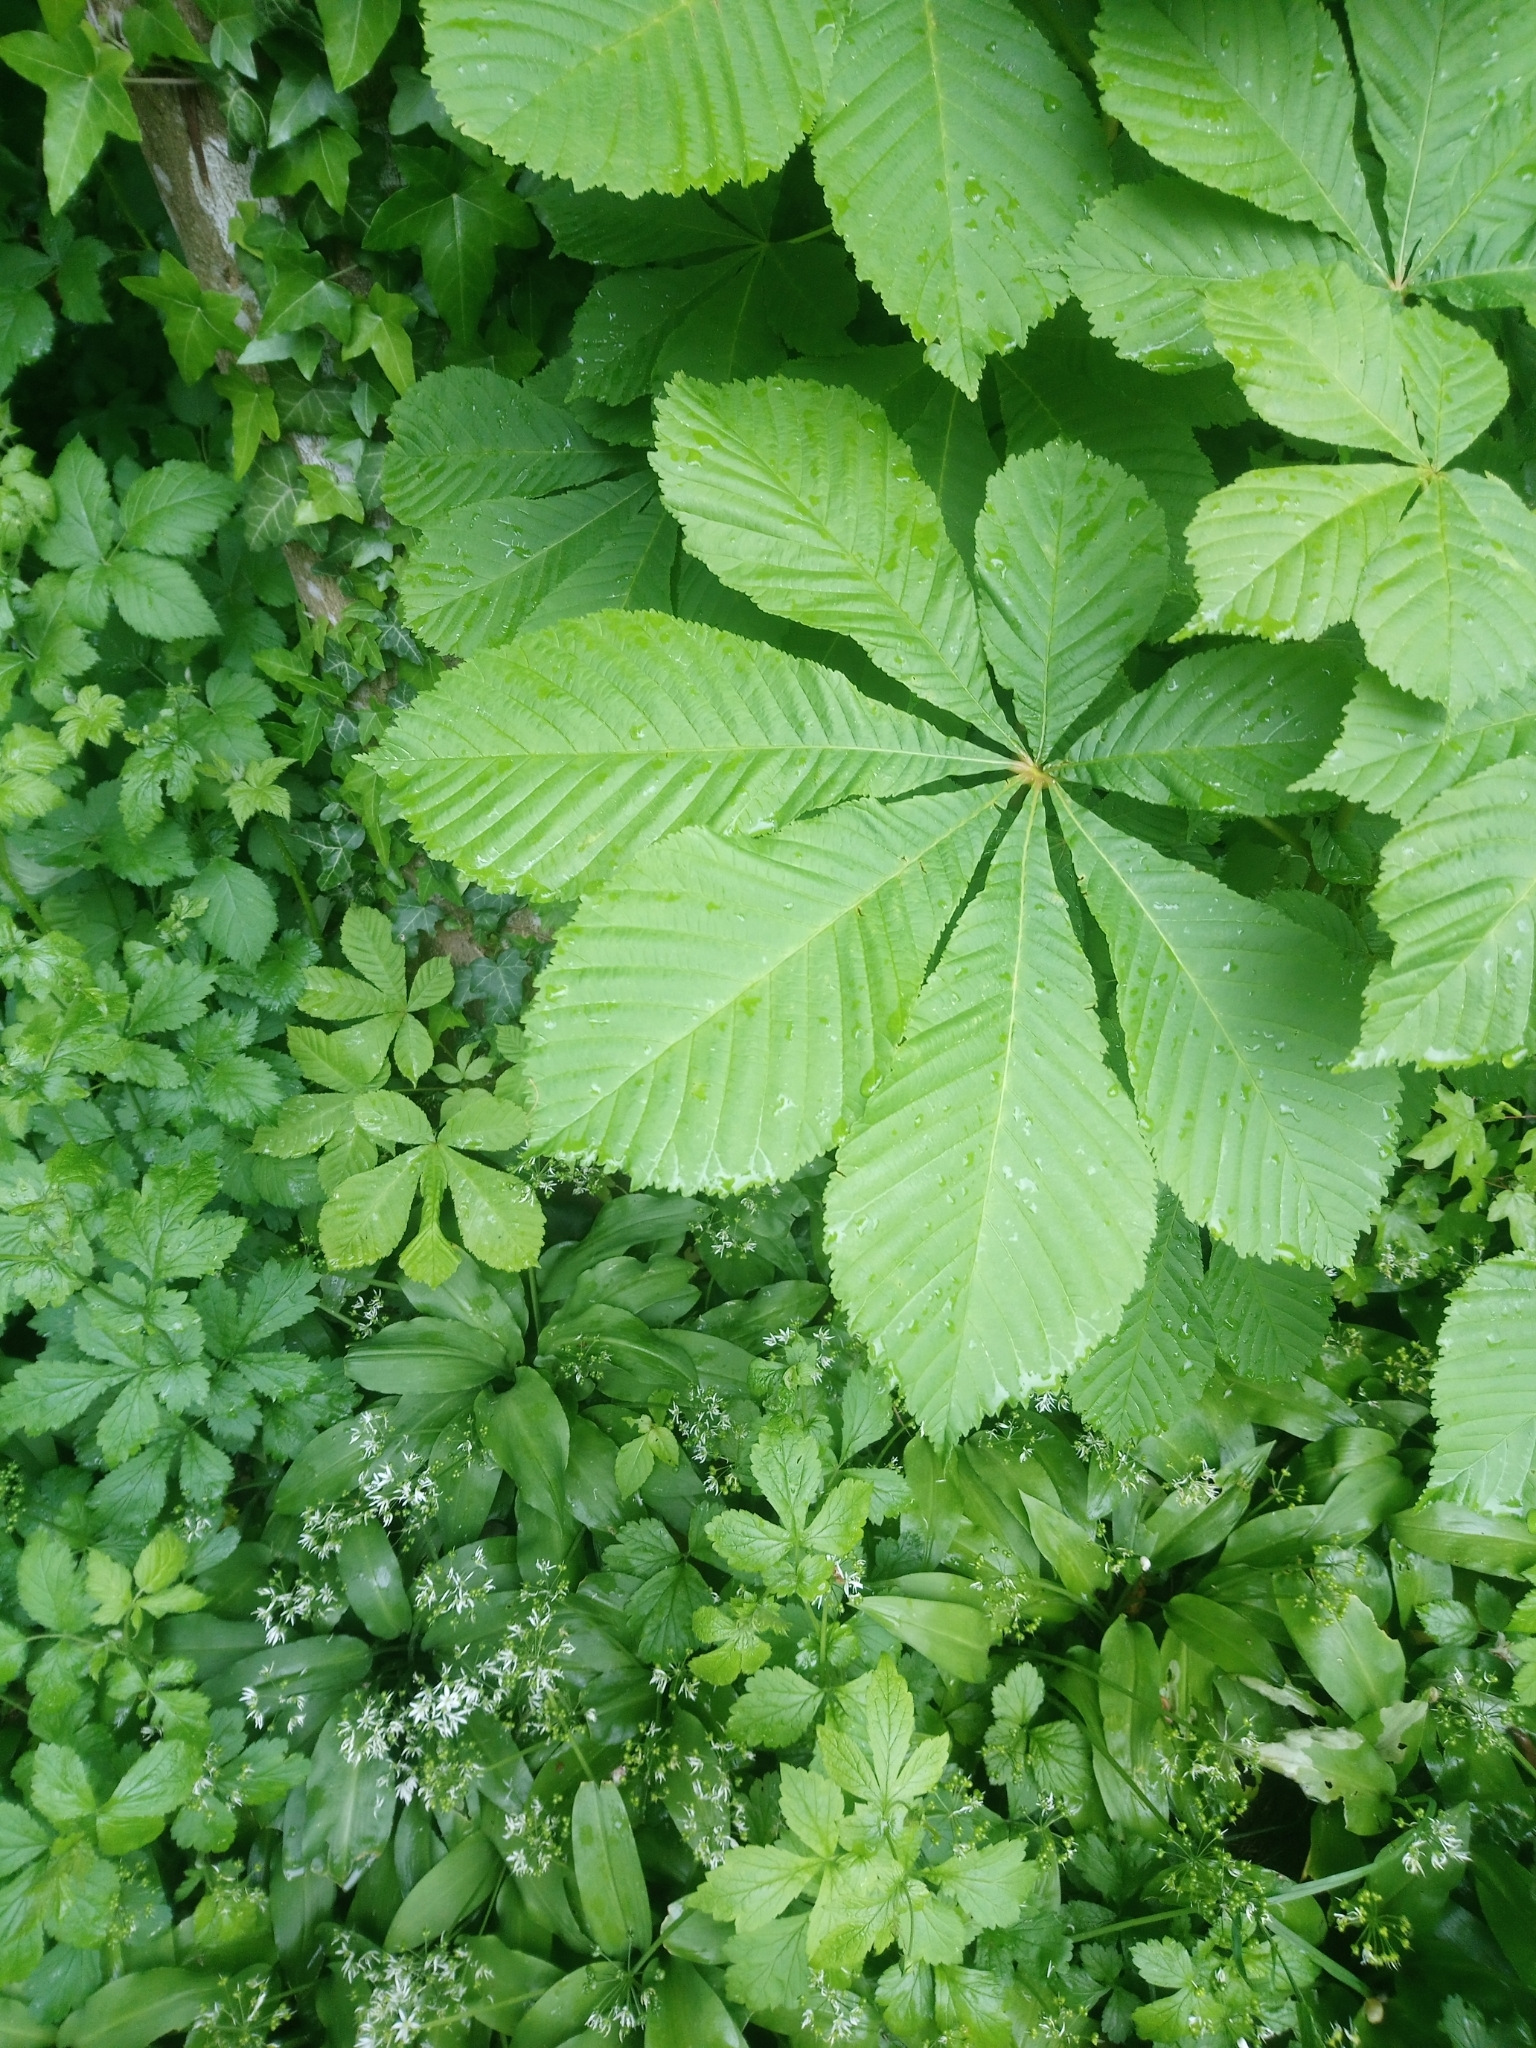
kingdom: Plantae
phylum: Tracheophyta
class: Magnoliopsida
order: Sapindales
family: Sapindaceae
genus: Aesculus
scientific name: Aesculus hippocastanum
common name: Horse-chestnut
